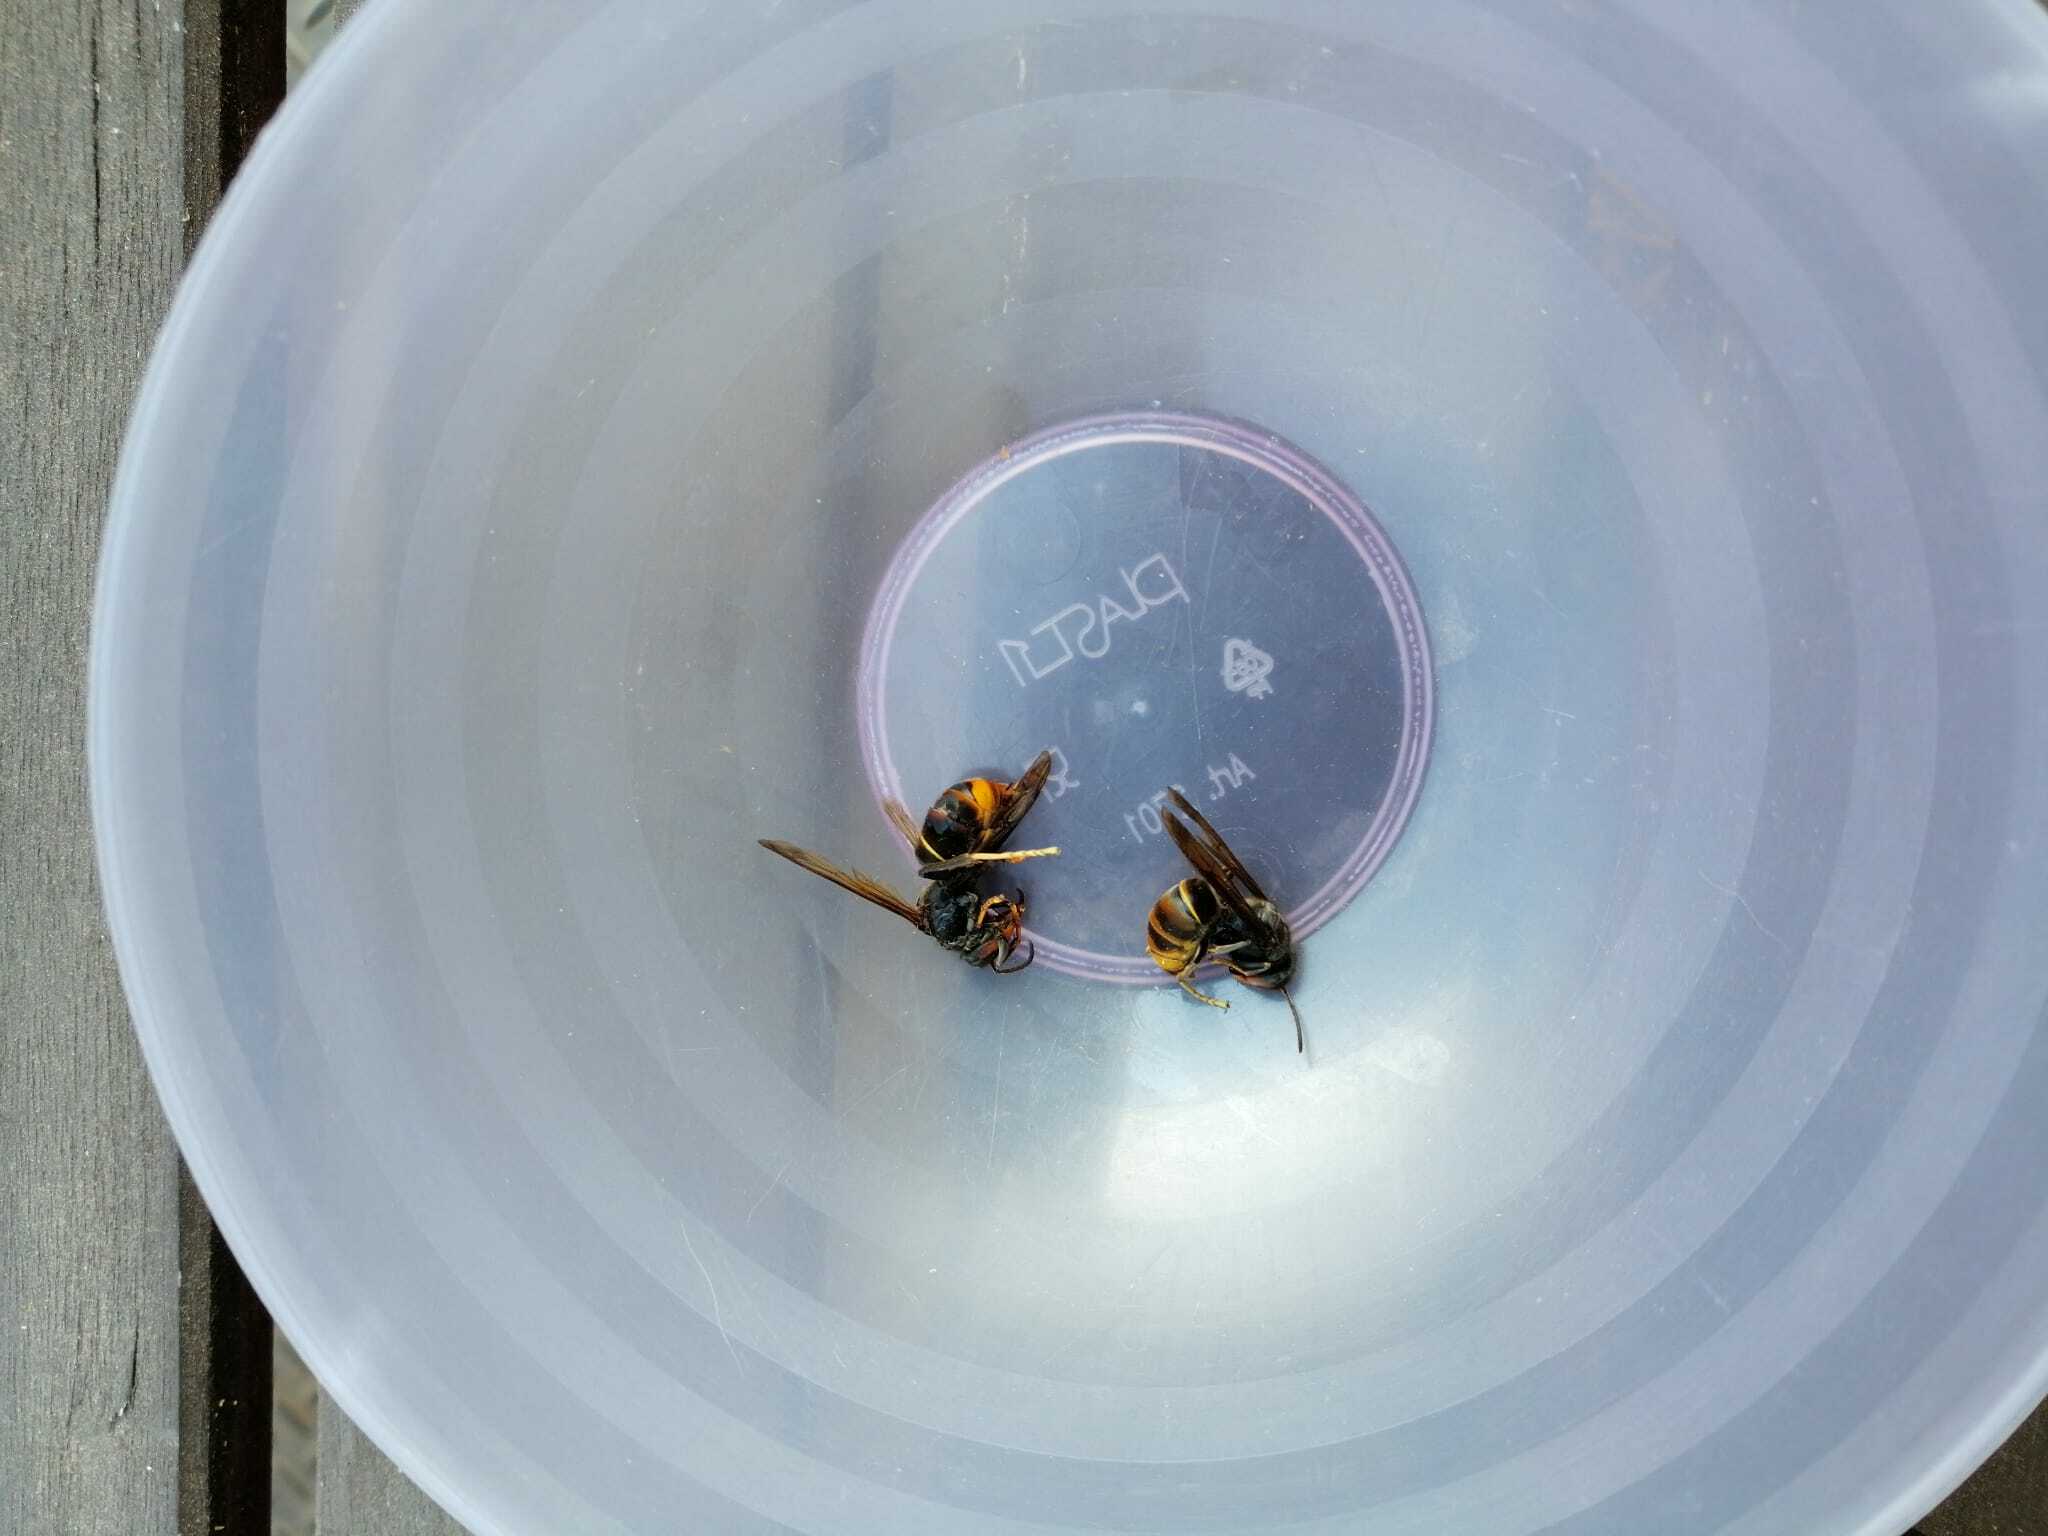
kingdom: Animalia
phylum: Arthropoda
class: Insecta
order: Hymenoptera
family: Vespidae
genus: Vespa
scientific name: Vespa velutina
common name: Asian hornet
